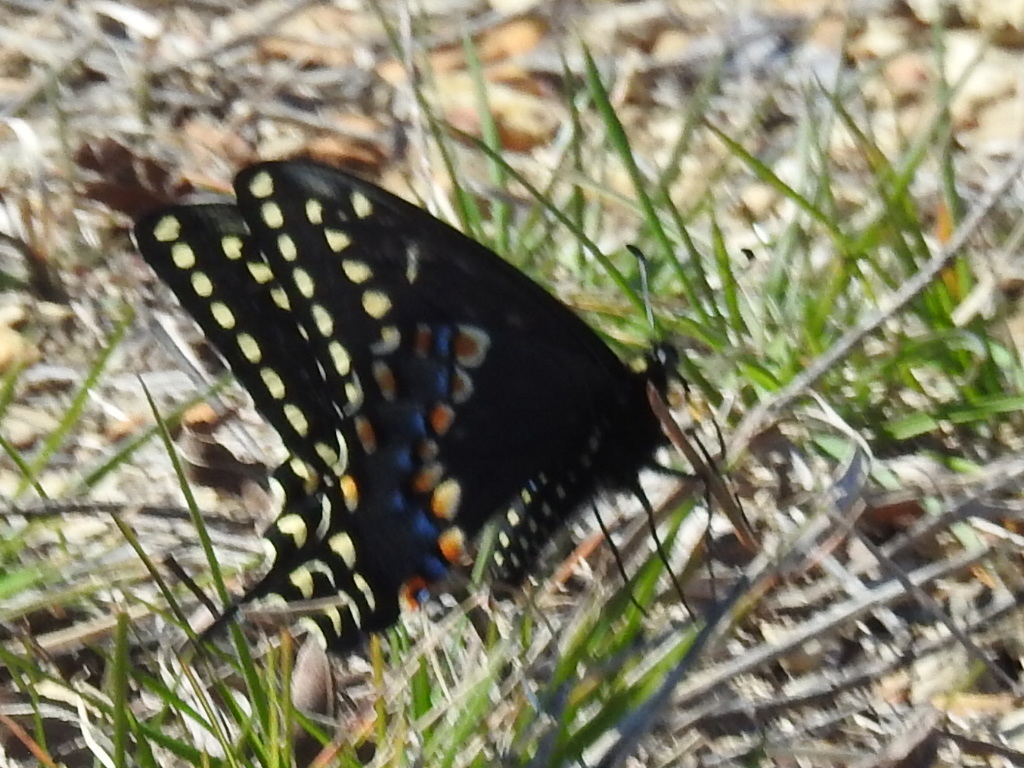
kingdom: Animalia
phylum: Arthropoda
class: Insecta
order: Lepidoptera
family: Papilionidae
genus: Papilio
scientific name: Papilio polyxenes
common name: Black swallowtail
